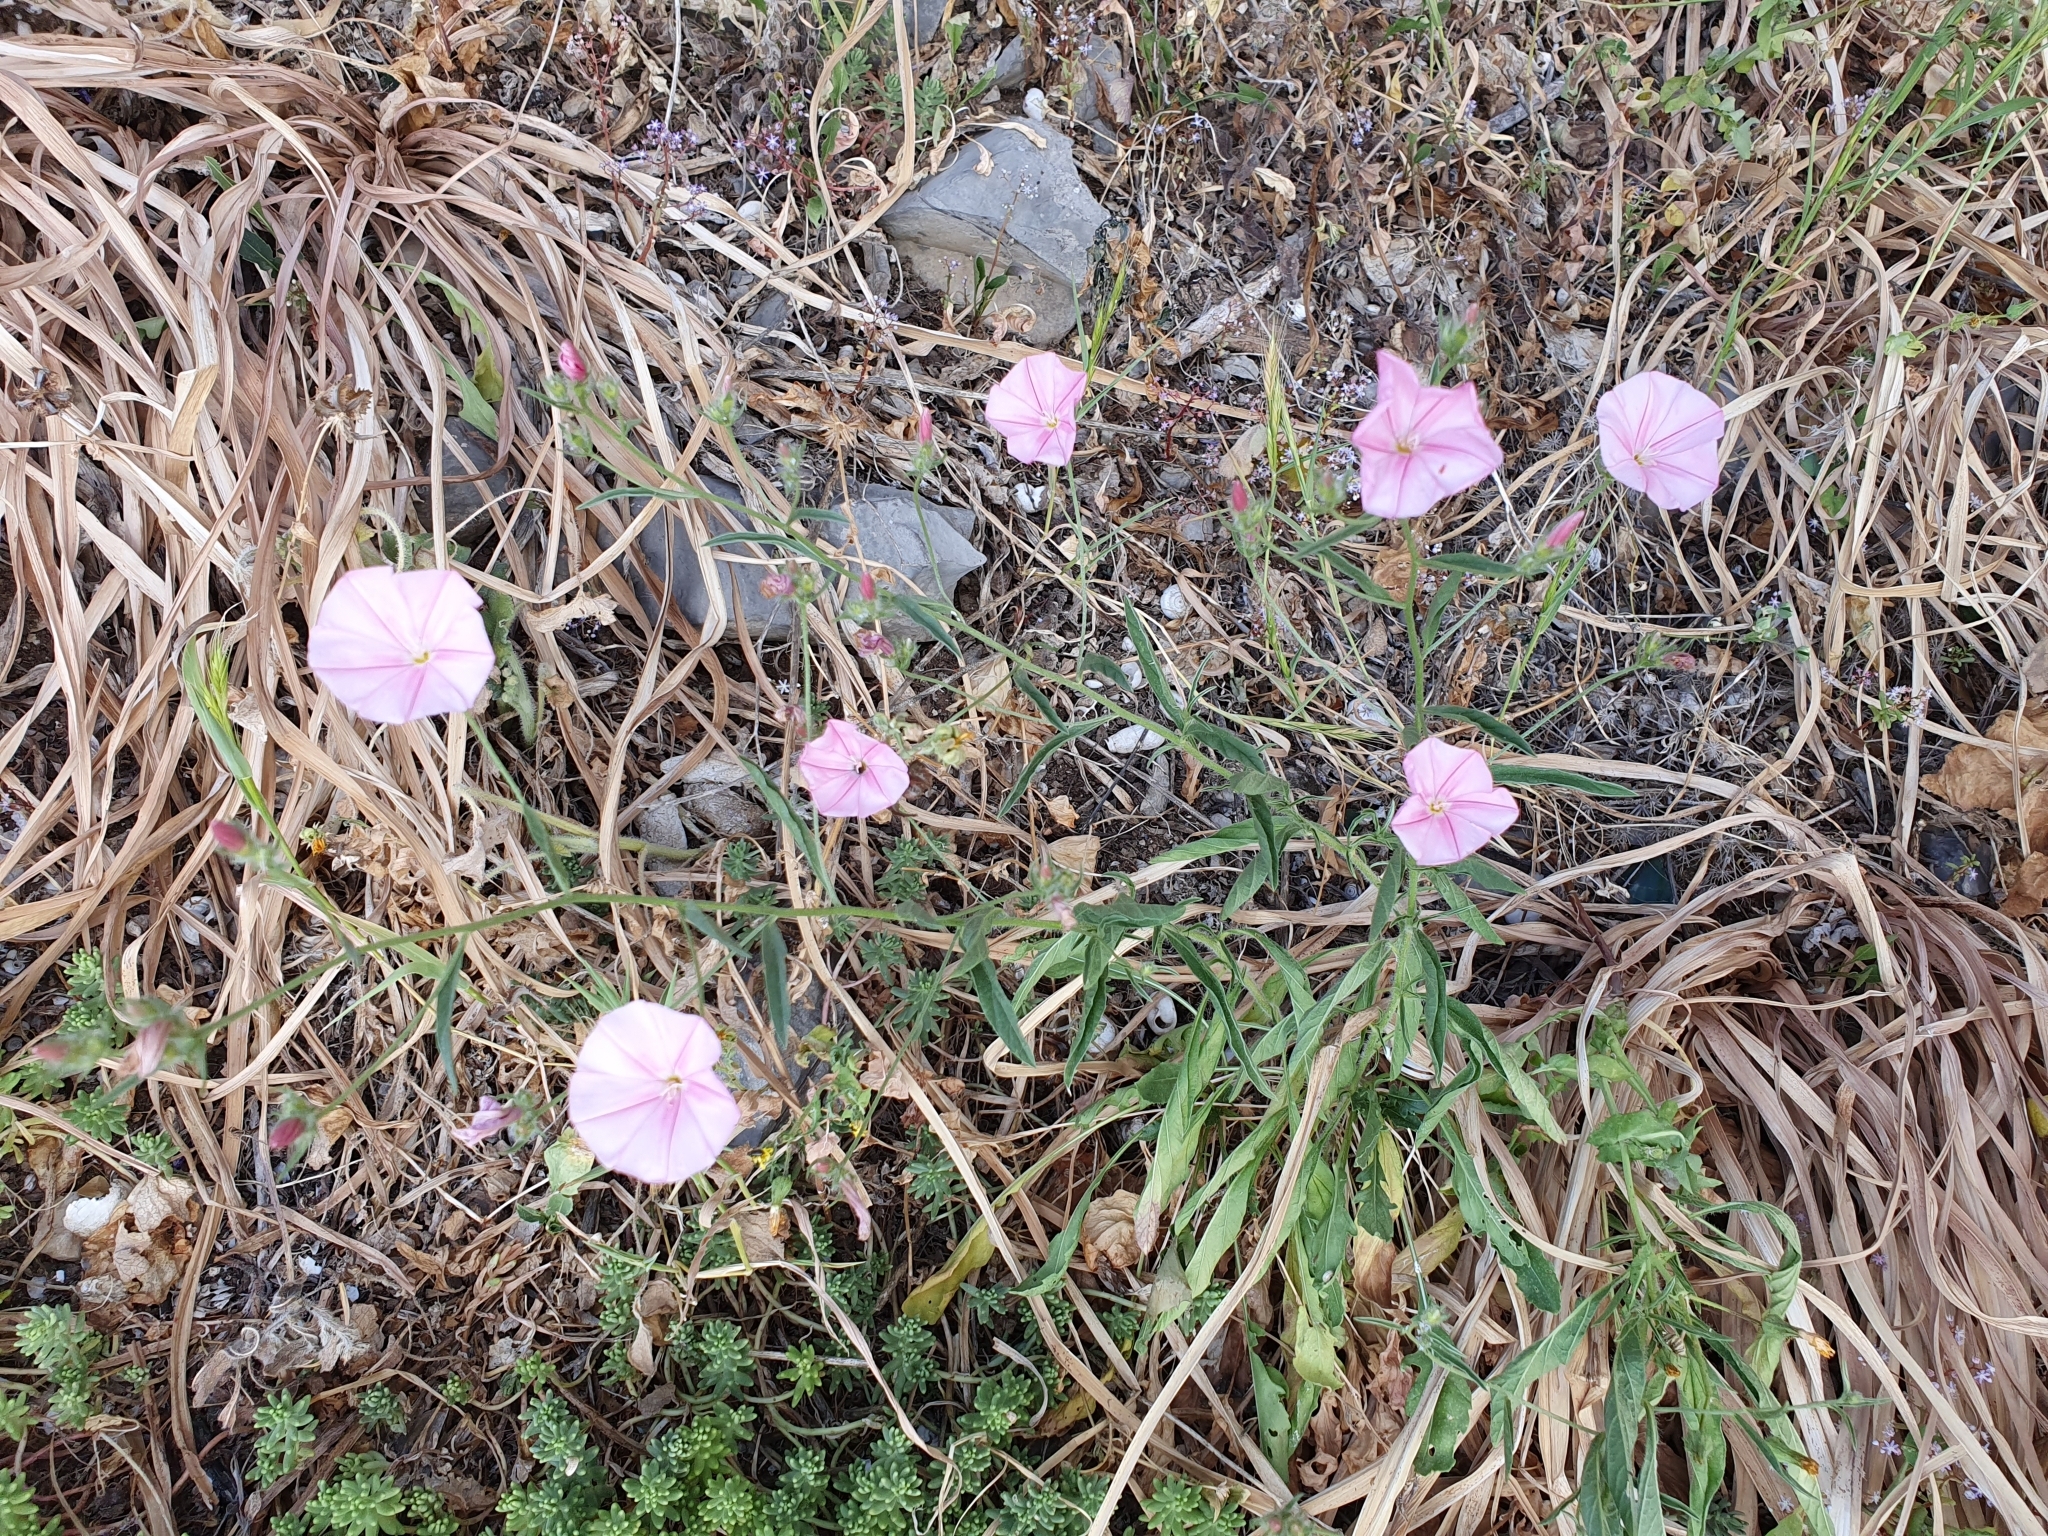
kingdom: Plantae
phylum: Tracheophyta
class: Magnoliopsida
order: Solanales
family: Convolvulaceae
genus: Convolvulus
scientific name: Convolvulus cantabrica
